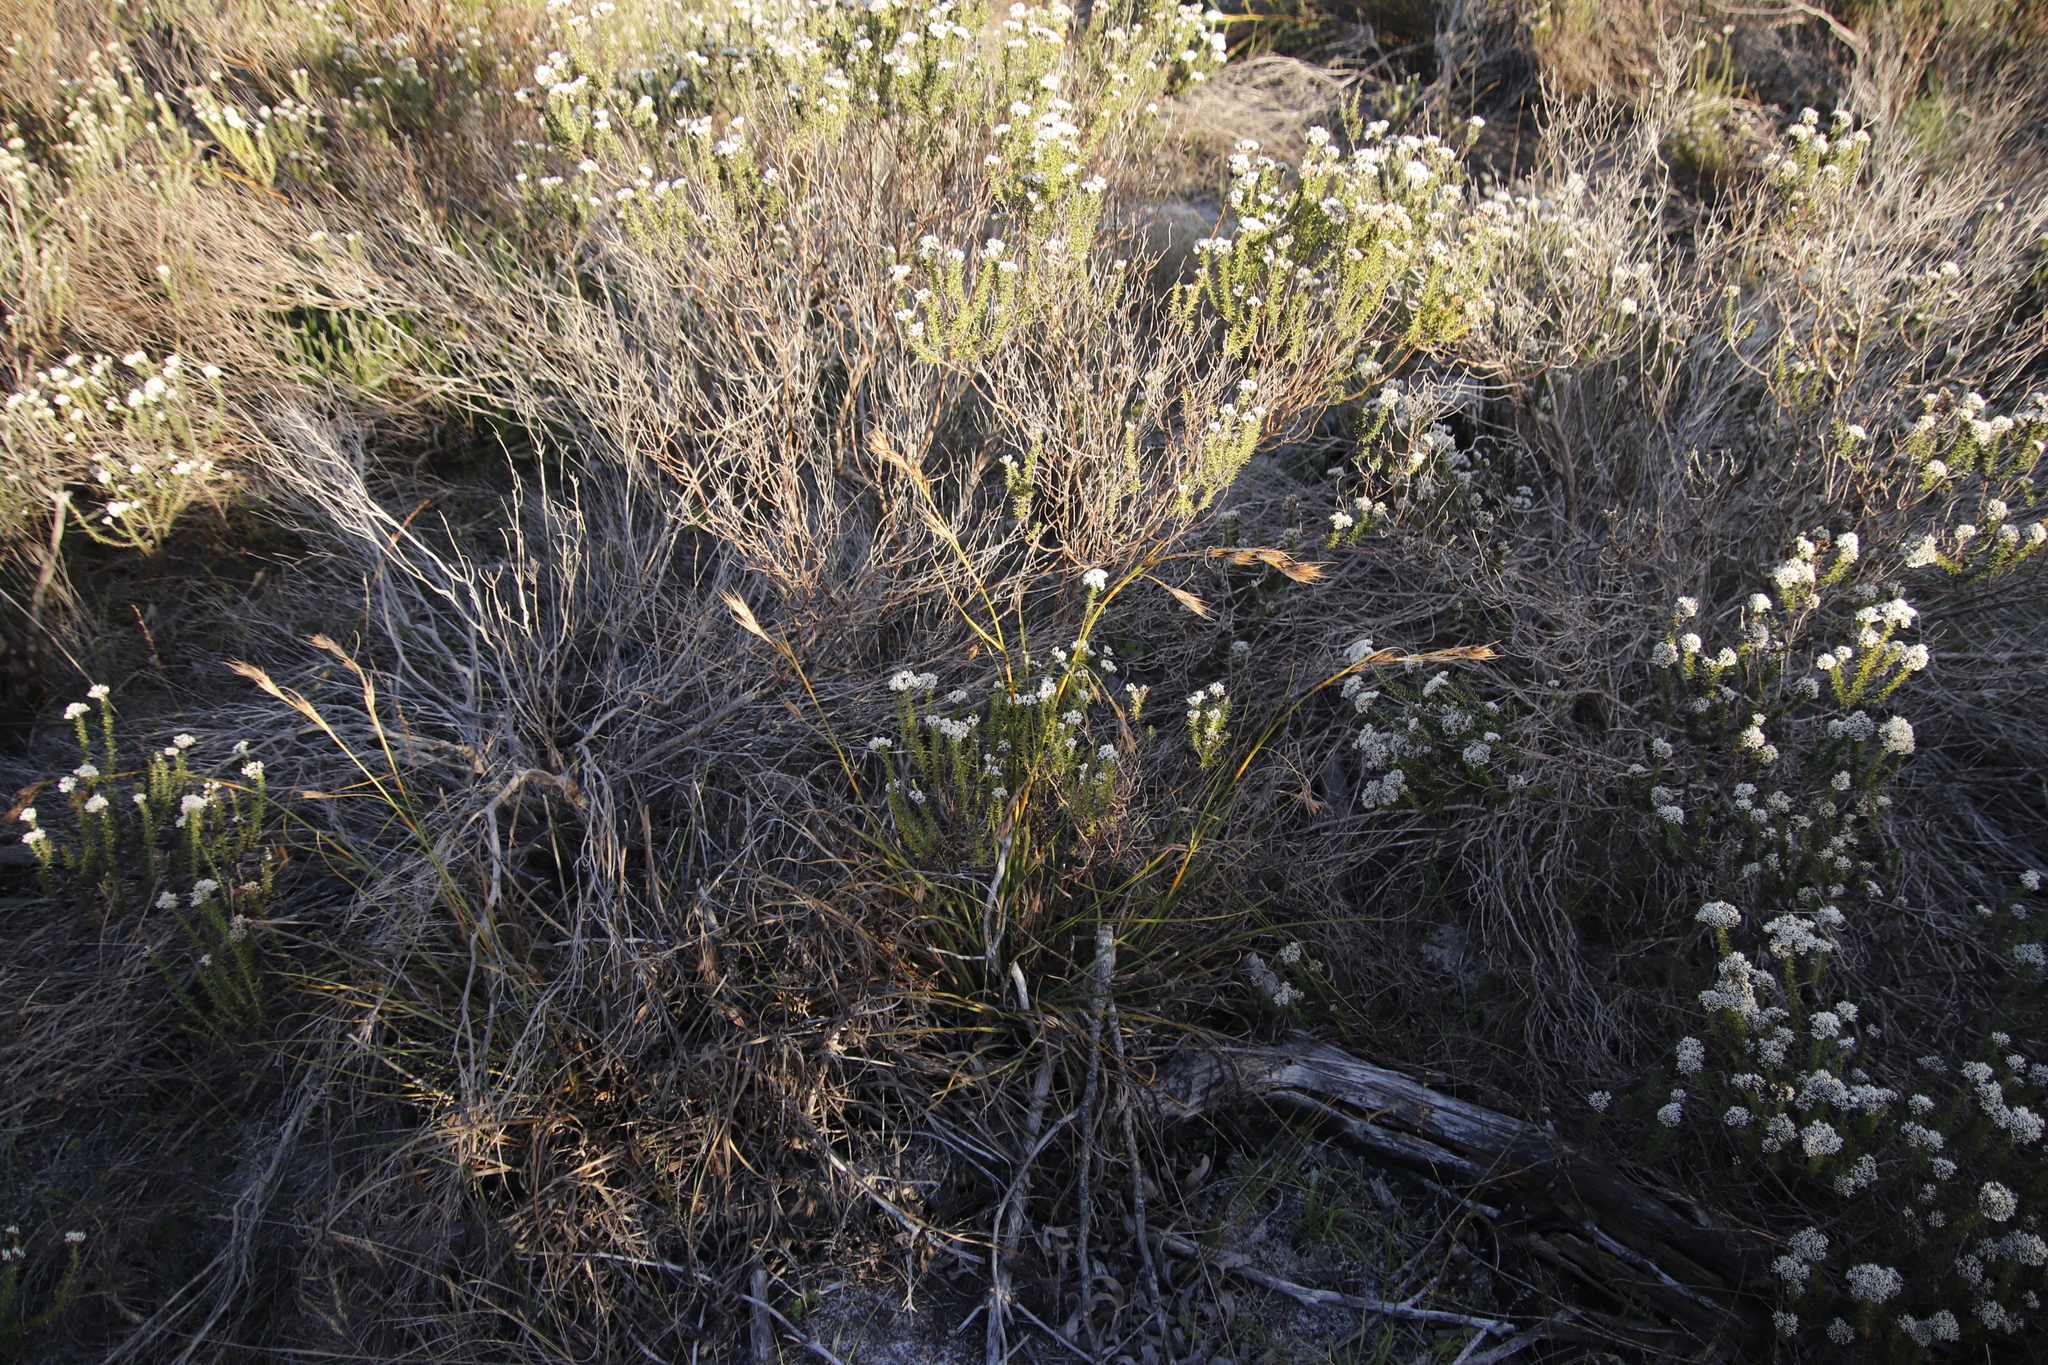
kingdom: Plantae
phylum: Tracheophyta
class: Liliopsida
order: Poales
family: Cyperaceae
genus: Tetraria
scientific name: Tetraria eximia
